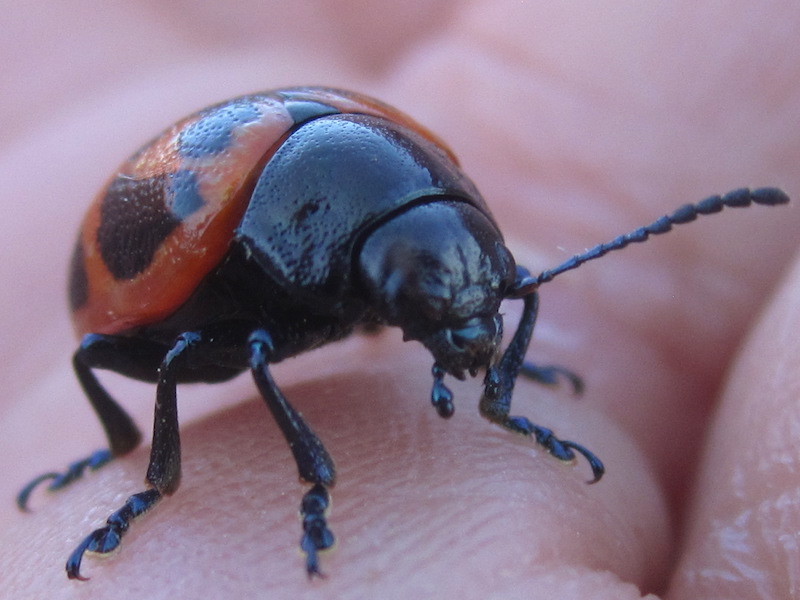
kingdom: Animalia
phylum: Arthropoda
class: Insecta
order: Coleoptera
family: Chrysomelidae
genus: Labidomera
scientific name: Labidomera clivicollis
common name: Swamp milkweed leaf beetle
